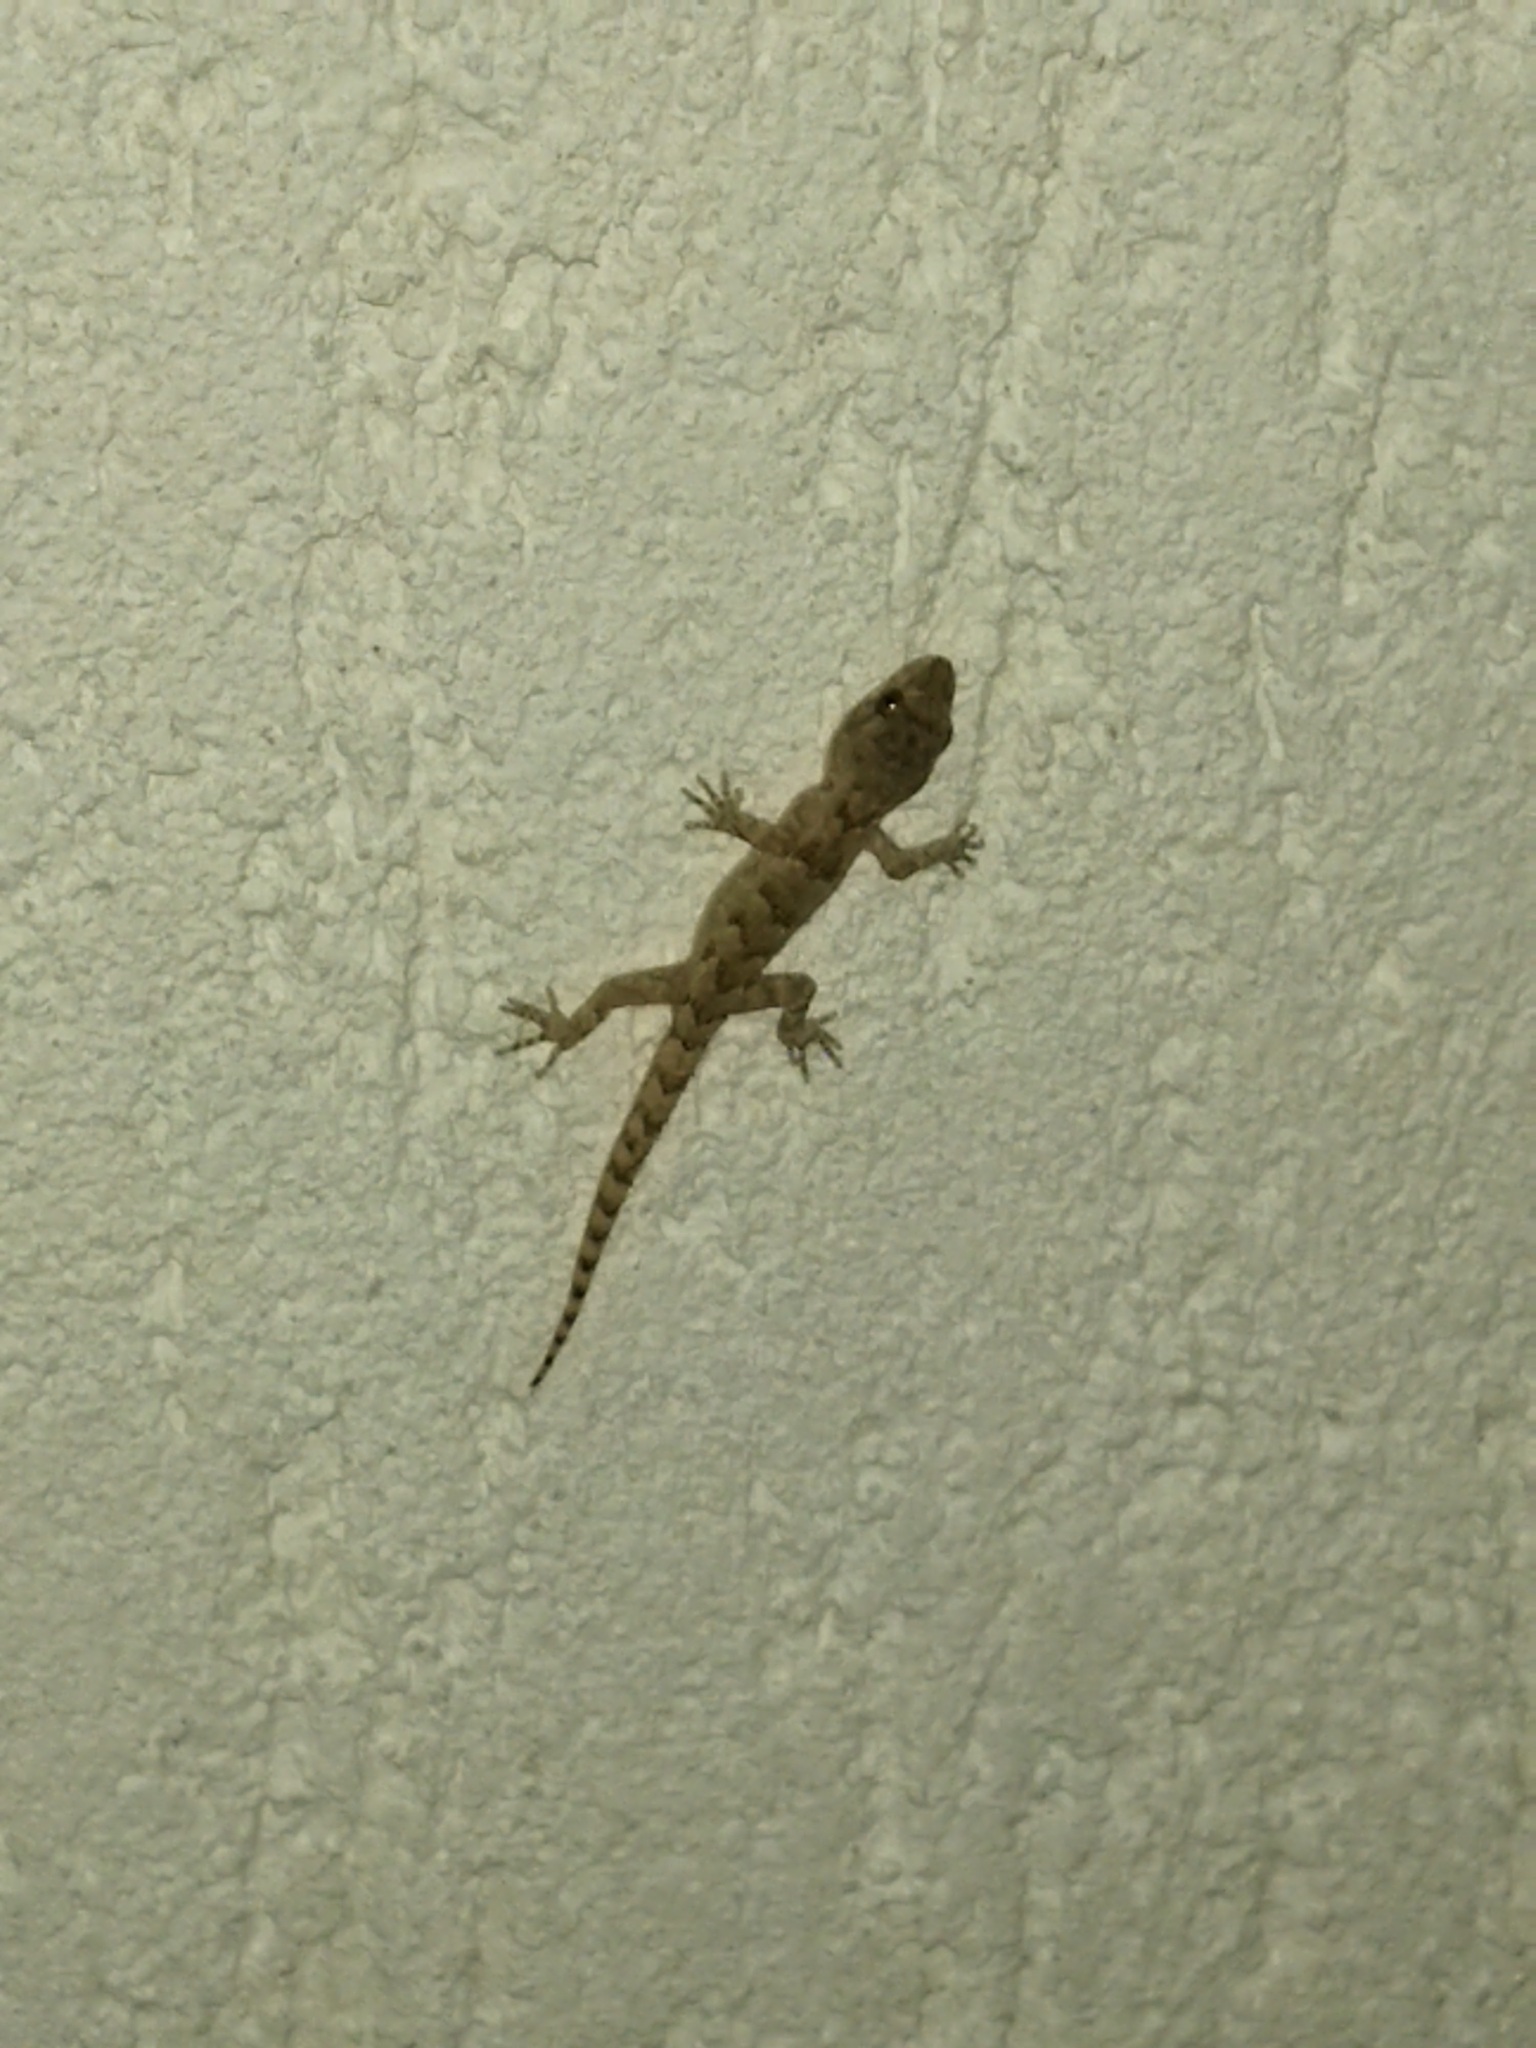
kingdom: Animalia
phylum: Chordata
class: Squamata
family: Gekkonidae
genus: Mediodactylus
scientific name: Mediodactylus kotschyi
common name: Kotschy's gecko
